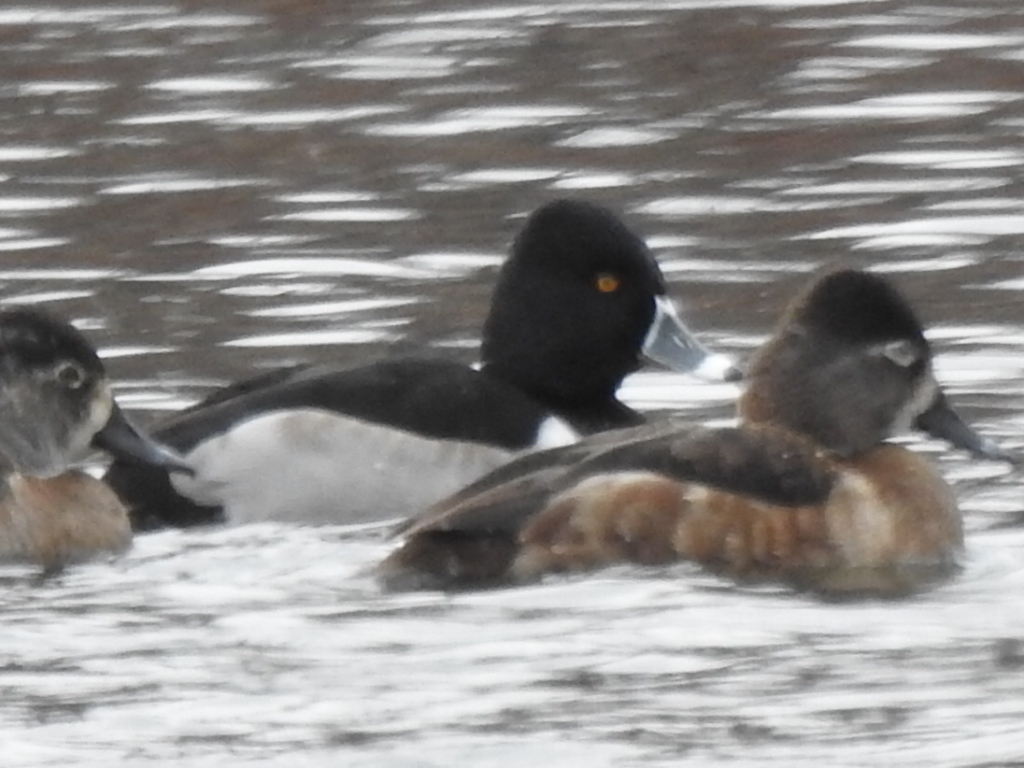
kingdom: Animalia
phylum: Chordata
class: Aves
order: Anseriformes
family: Anatidae
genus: Aythya
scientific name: Aythya collaris
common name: Ring-necked duck
